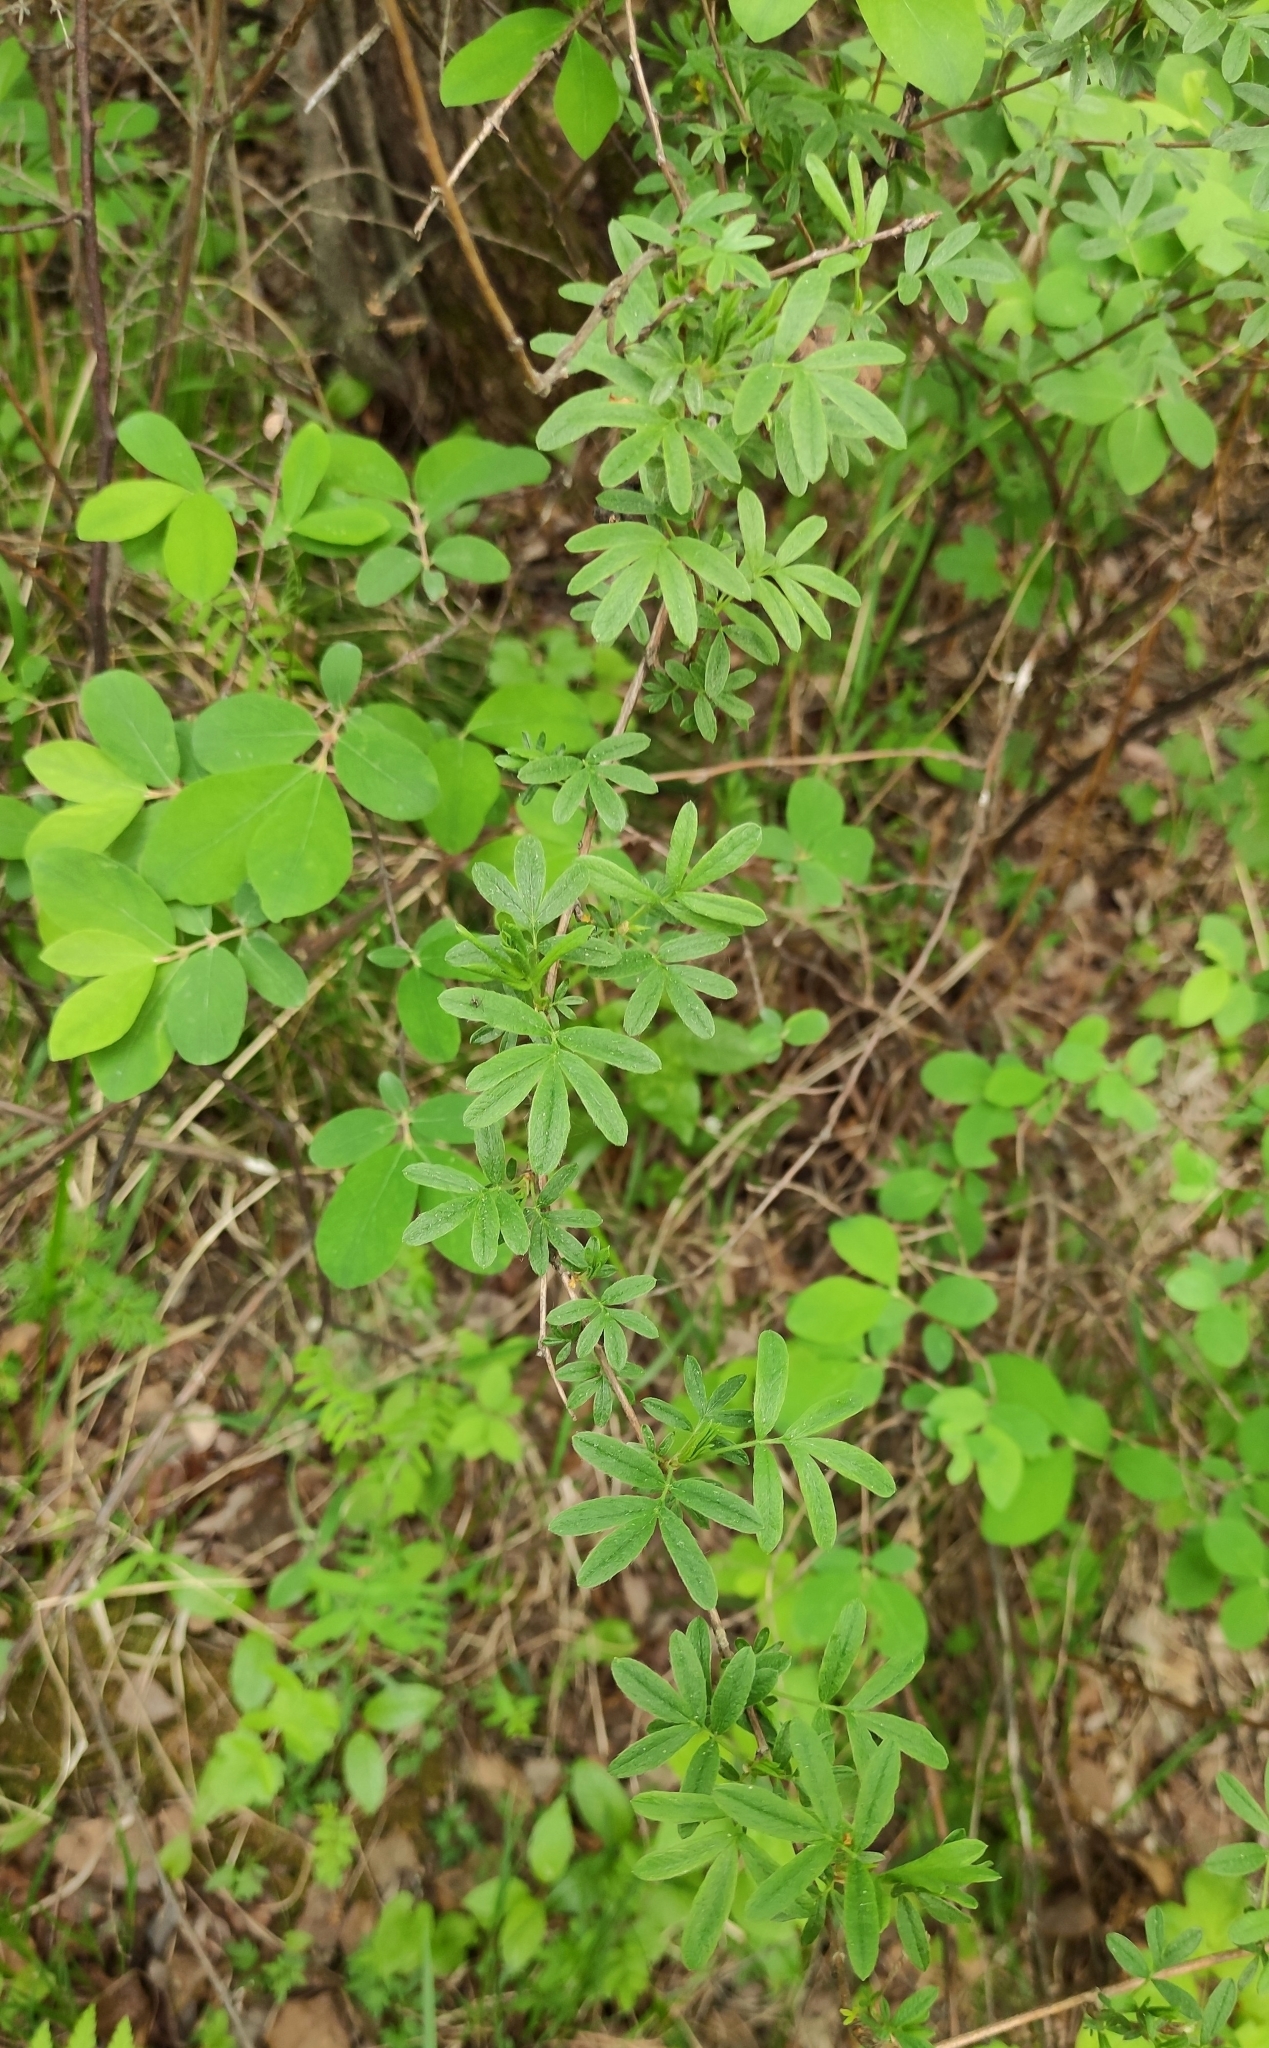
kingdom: Plantae
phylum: Tracheophyta
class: Magnoliopsida
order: Rosales
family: Rosaceae
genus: Dasiphora
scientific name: Dasiphora fruticosa
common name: Shrubby cinquefoil
